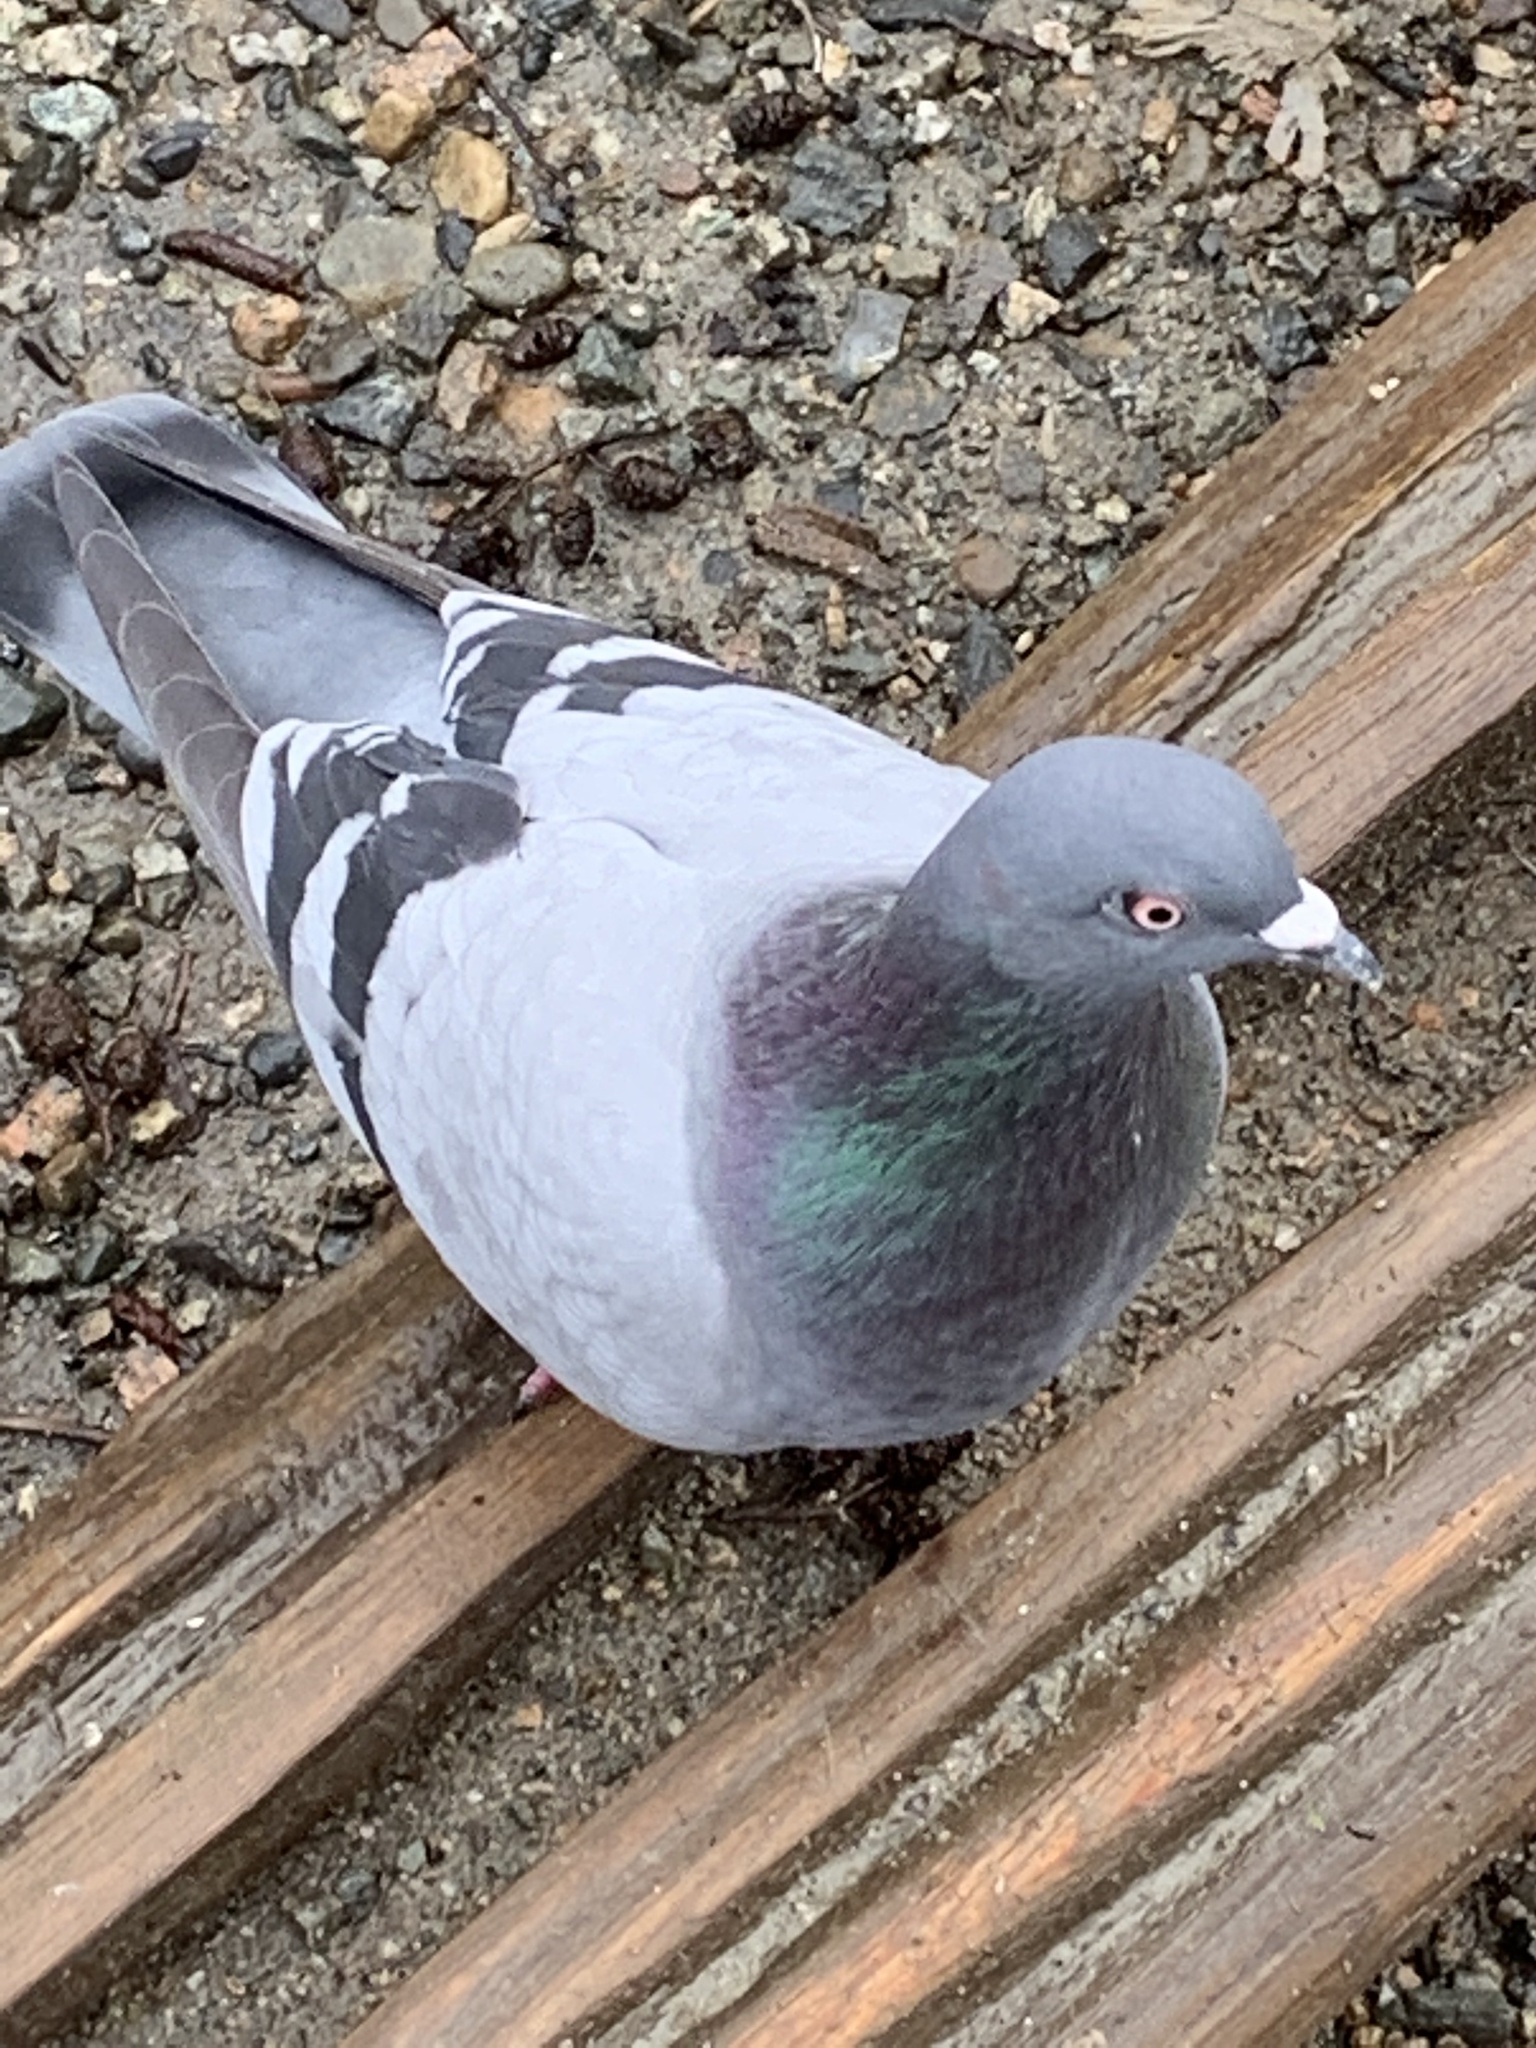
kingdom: Animalia
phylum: Chordata
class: Aves
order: Columbiformes
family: Columbidae
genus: Columba
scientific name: Columba livia
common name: Rock pigeon
